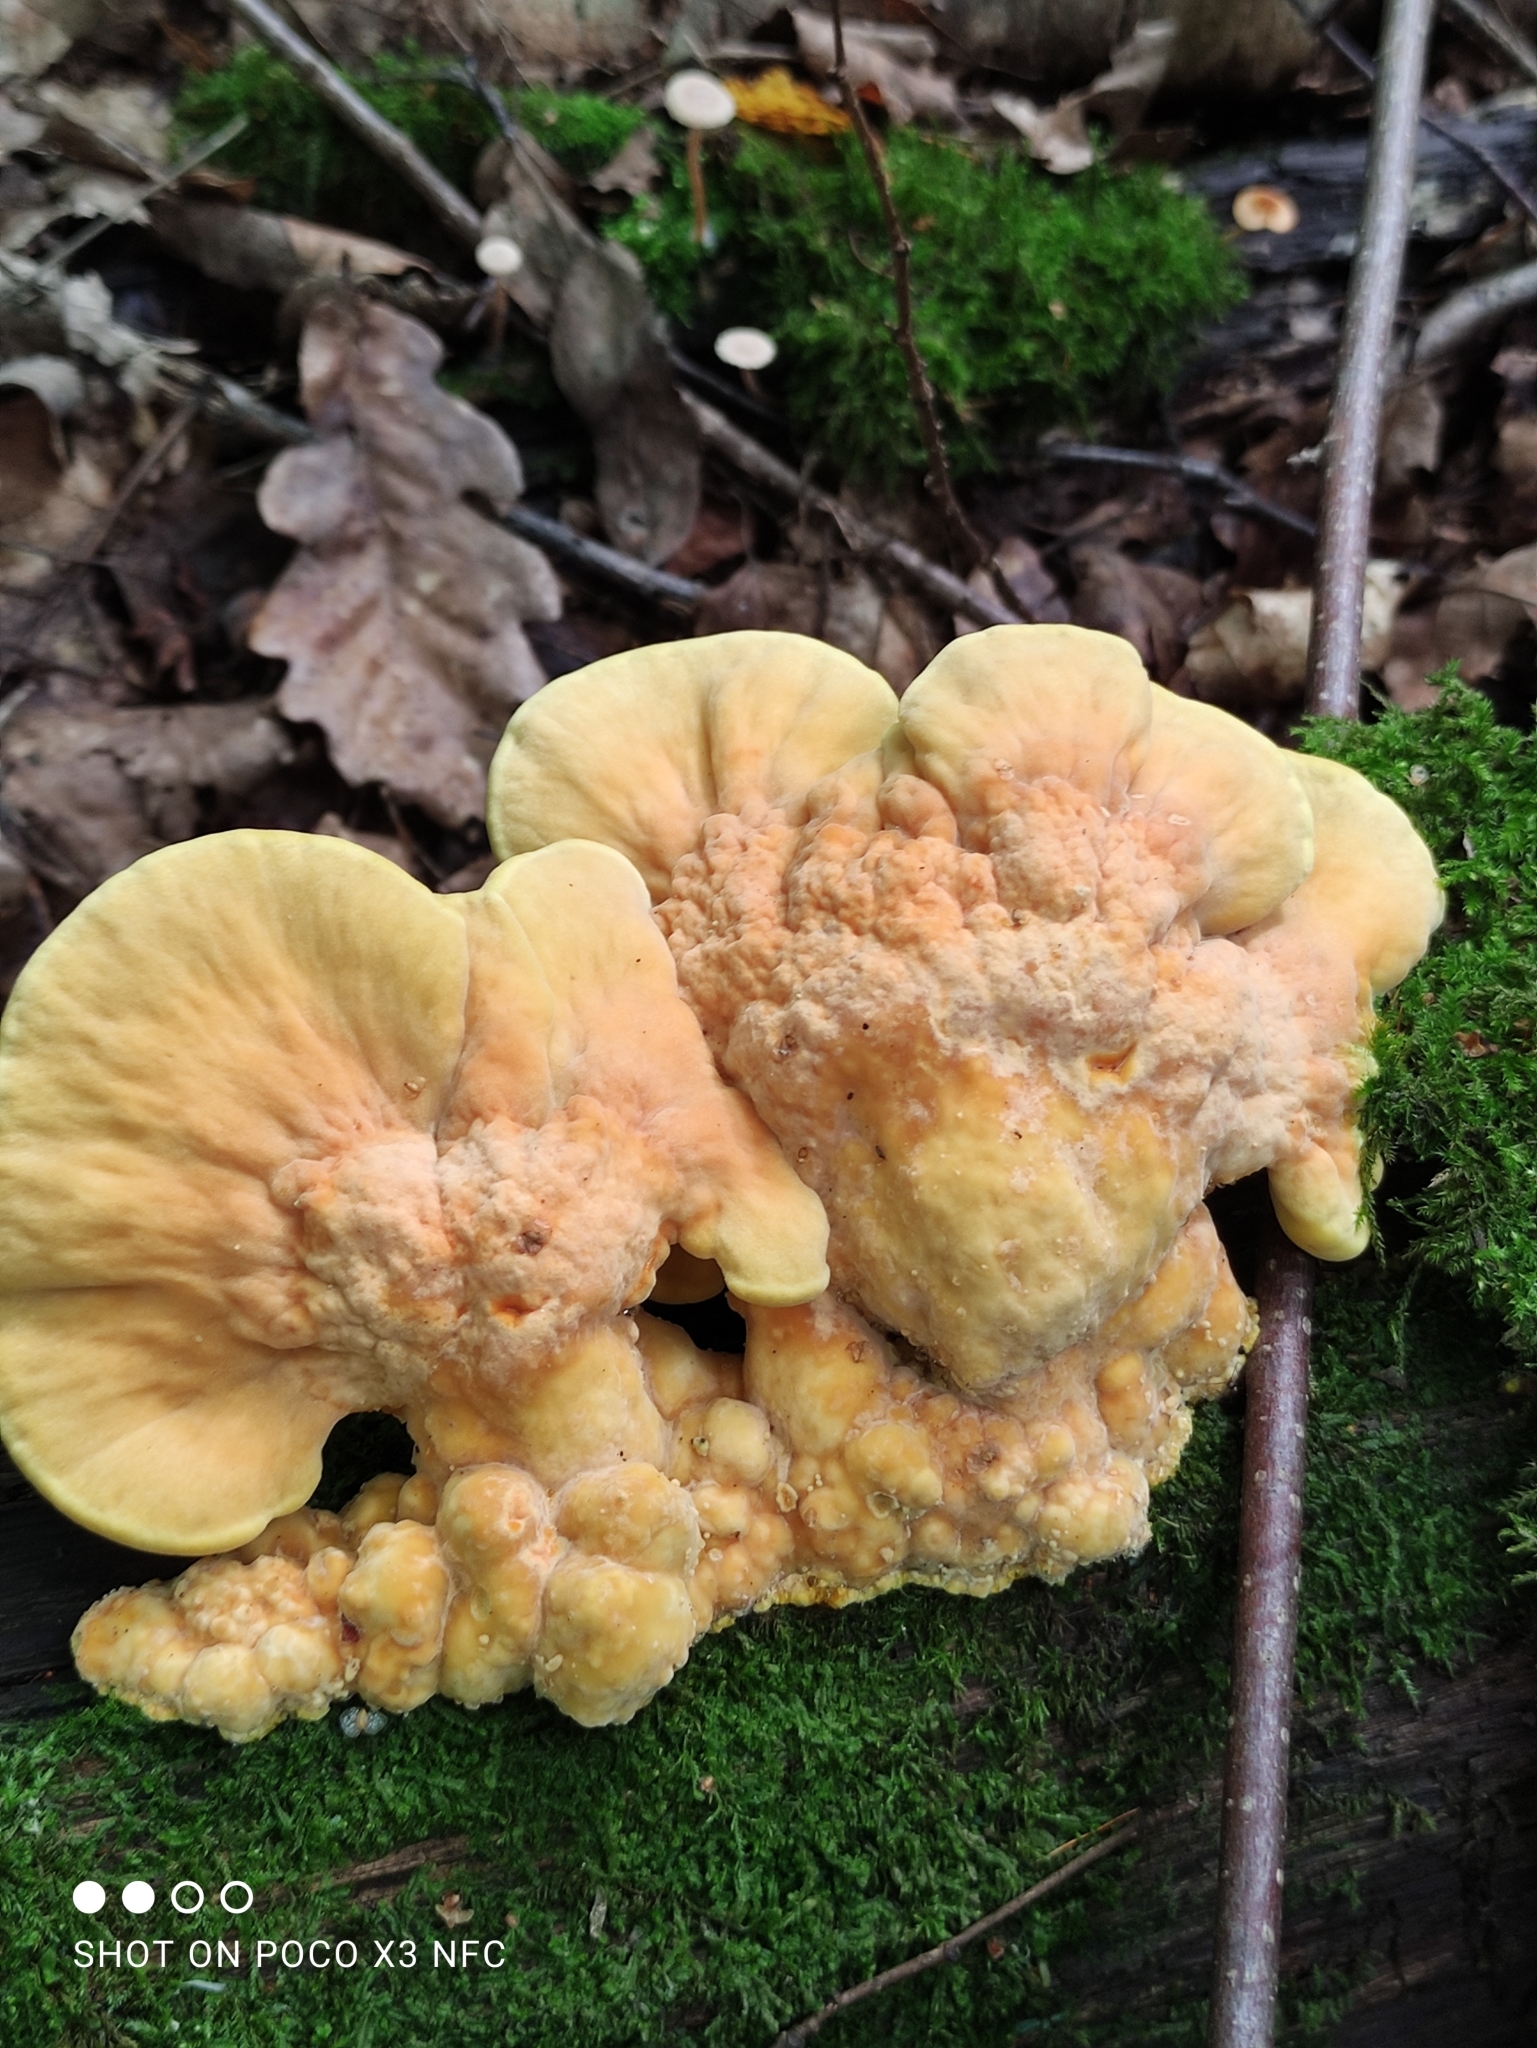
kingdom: Fungi
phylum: Basidiomycota
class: Agaricomycetes
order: Polyporales
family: Laetiporaceae
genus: Laetiporus
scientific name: Laetiporus sulphureus
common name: Chicken of the woods
